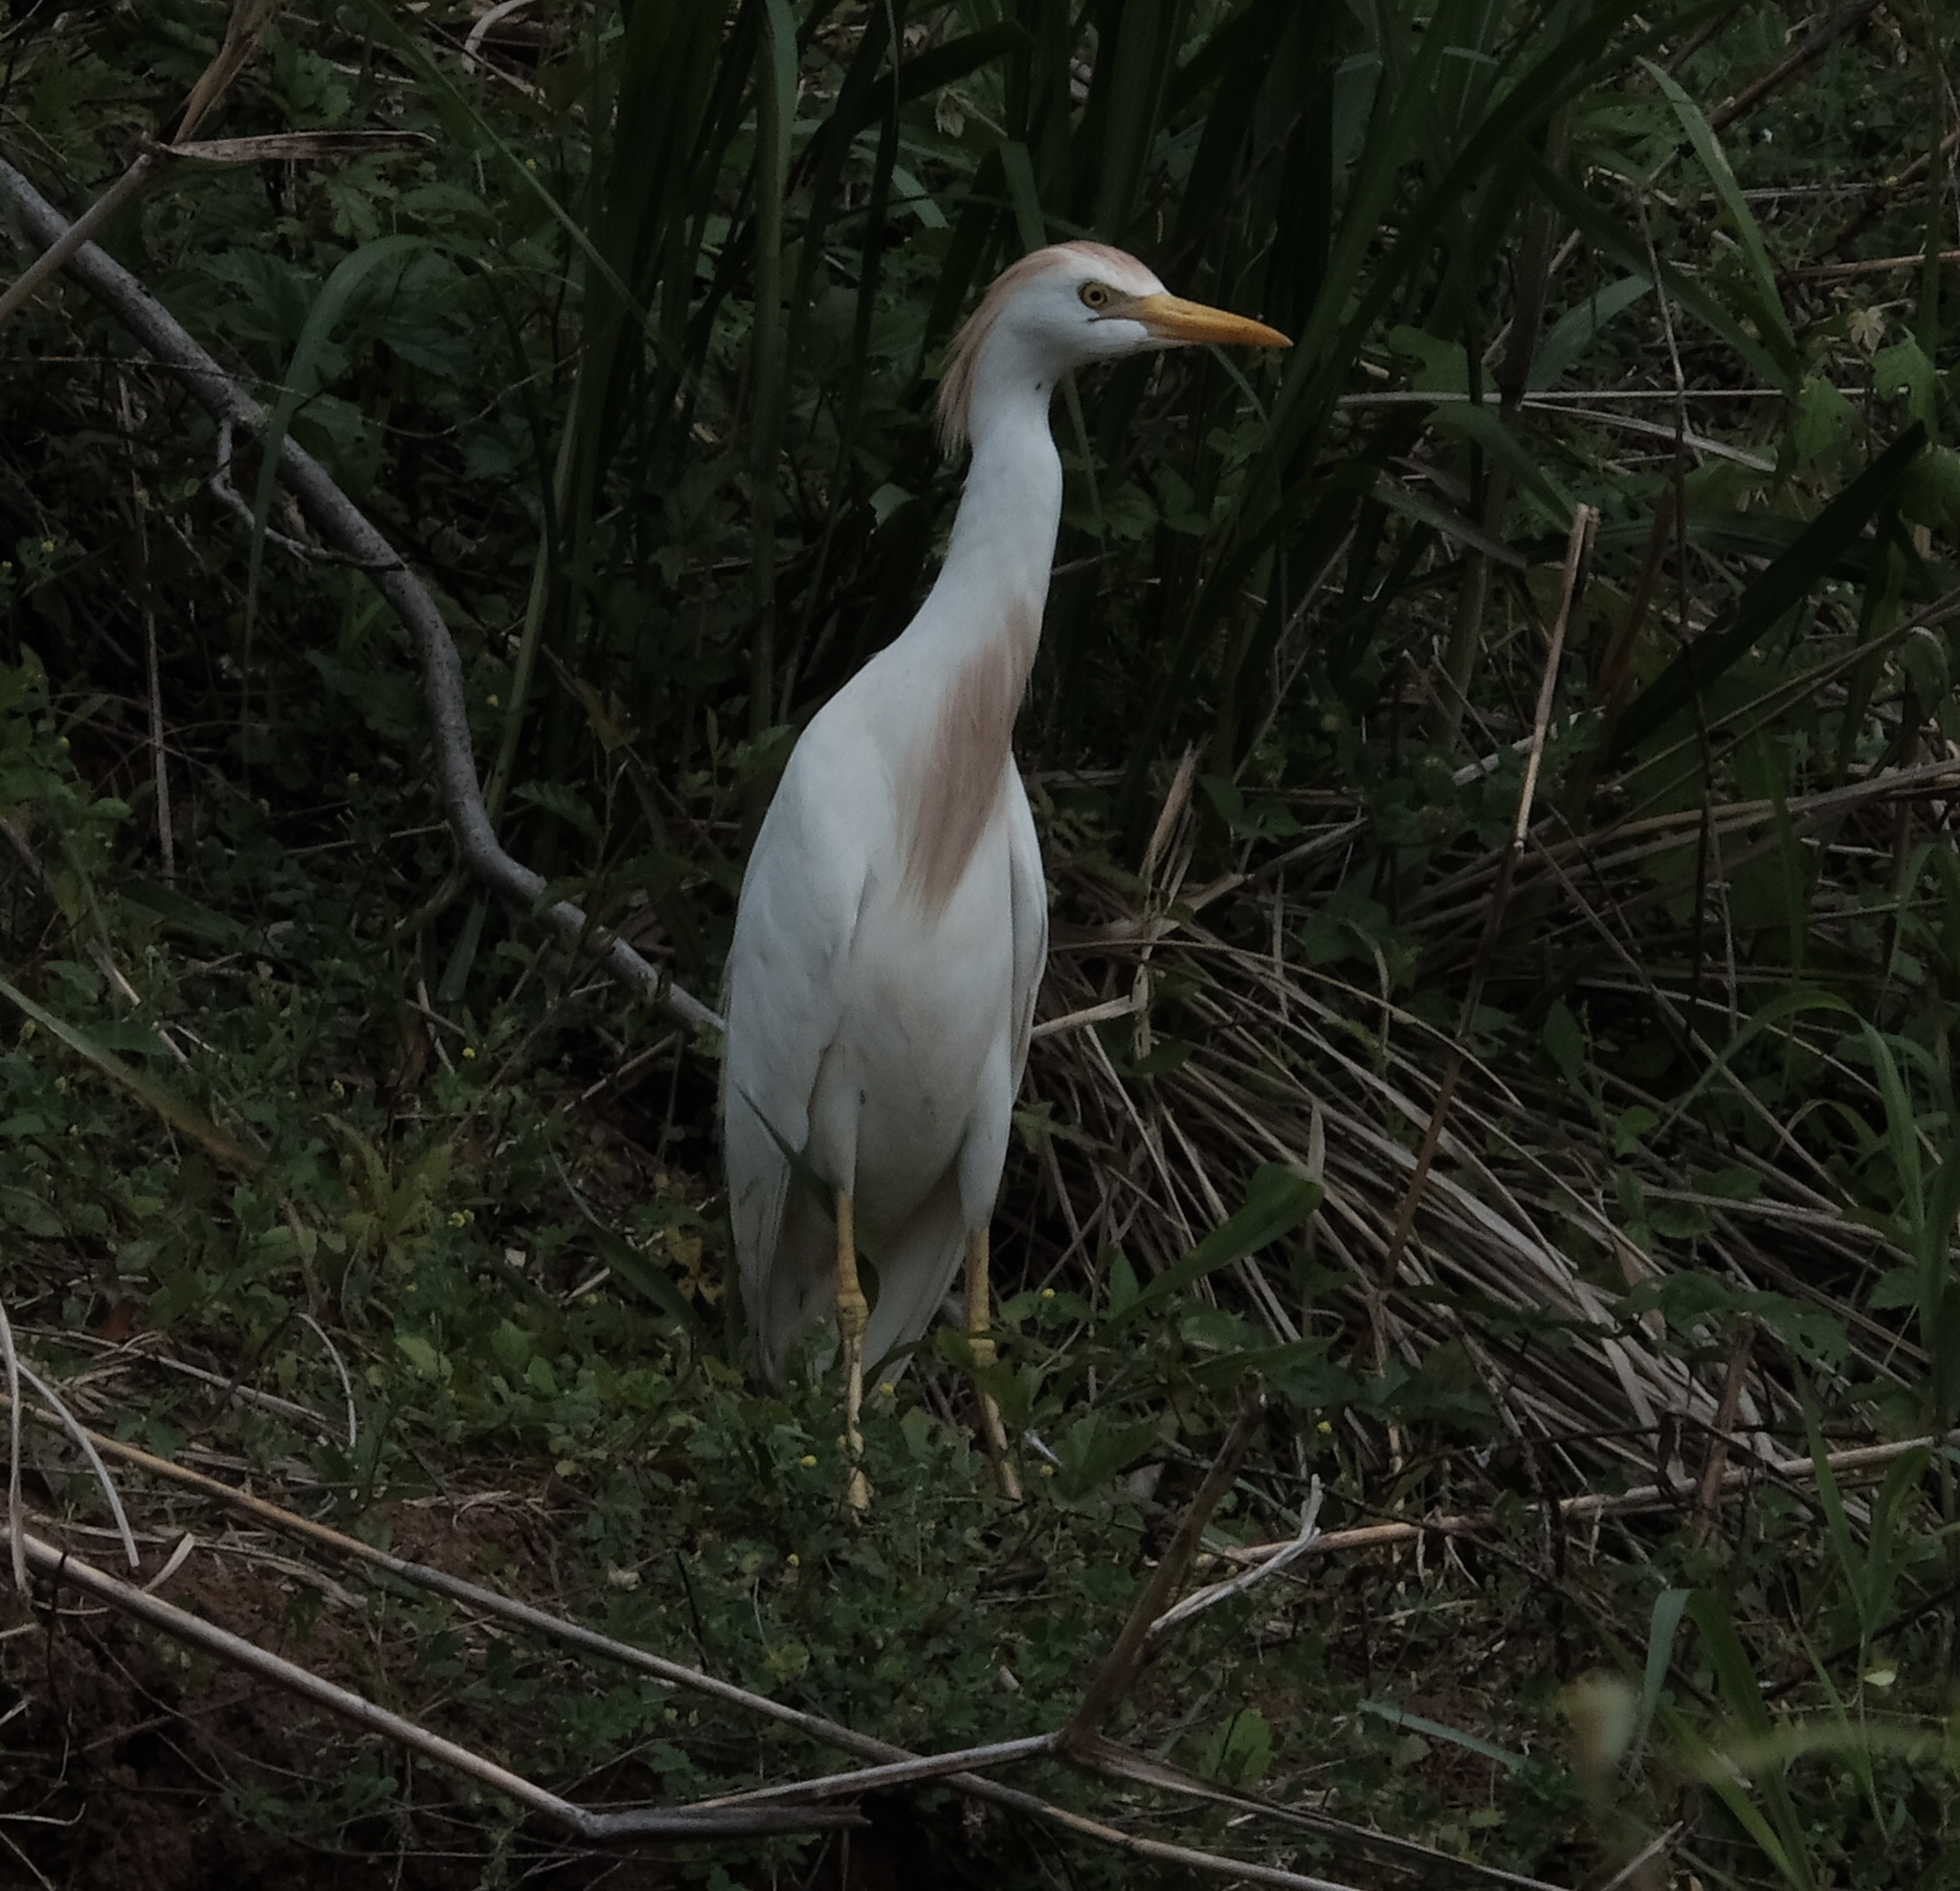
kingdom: Animalia
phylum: Chordata
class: Aves
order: Pelecaniformes
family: Ardeidae
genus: Bubulcus
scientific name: Bubulcus ibis
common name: Cattle egret
